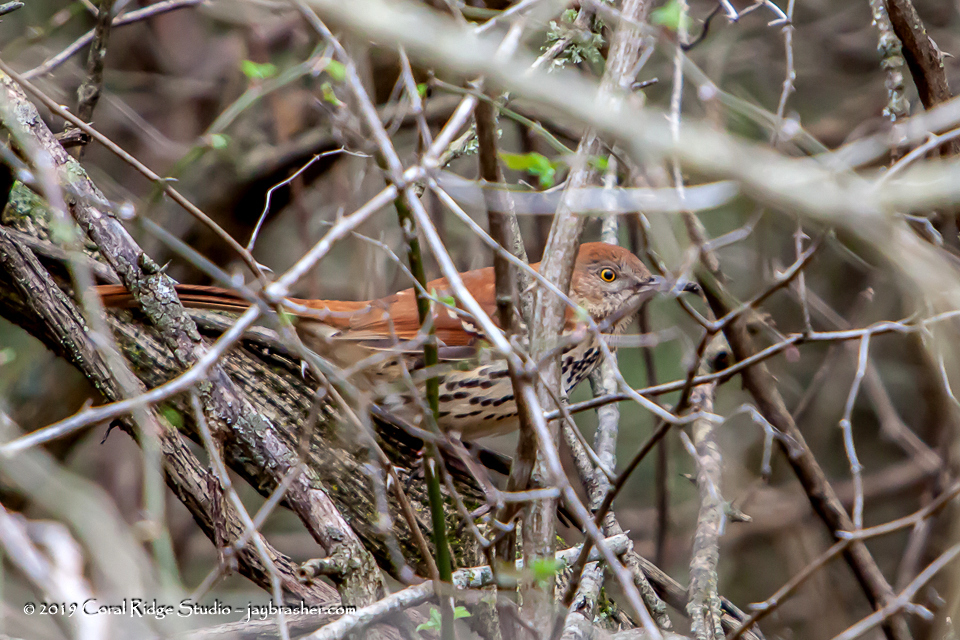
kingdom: Animalia
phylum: Chordata
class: Aves
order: Passeriformes
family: Mimidae
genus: Toxostoma
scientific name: Toxostoma rufum
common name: Brown thrasher
